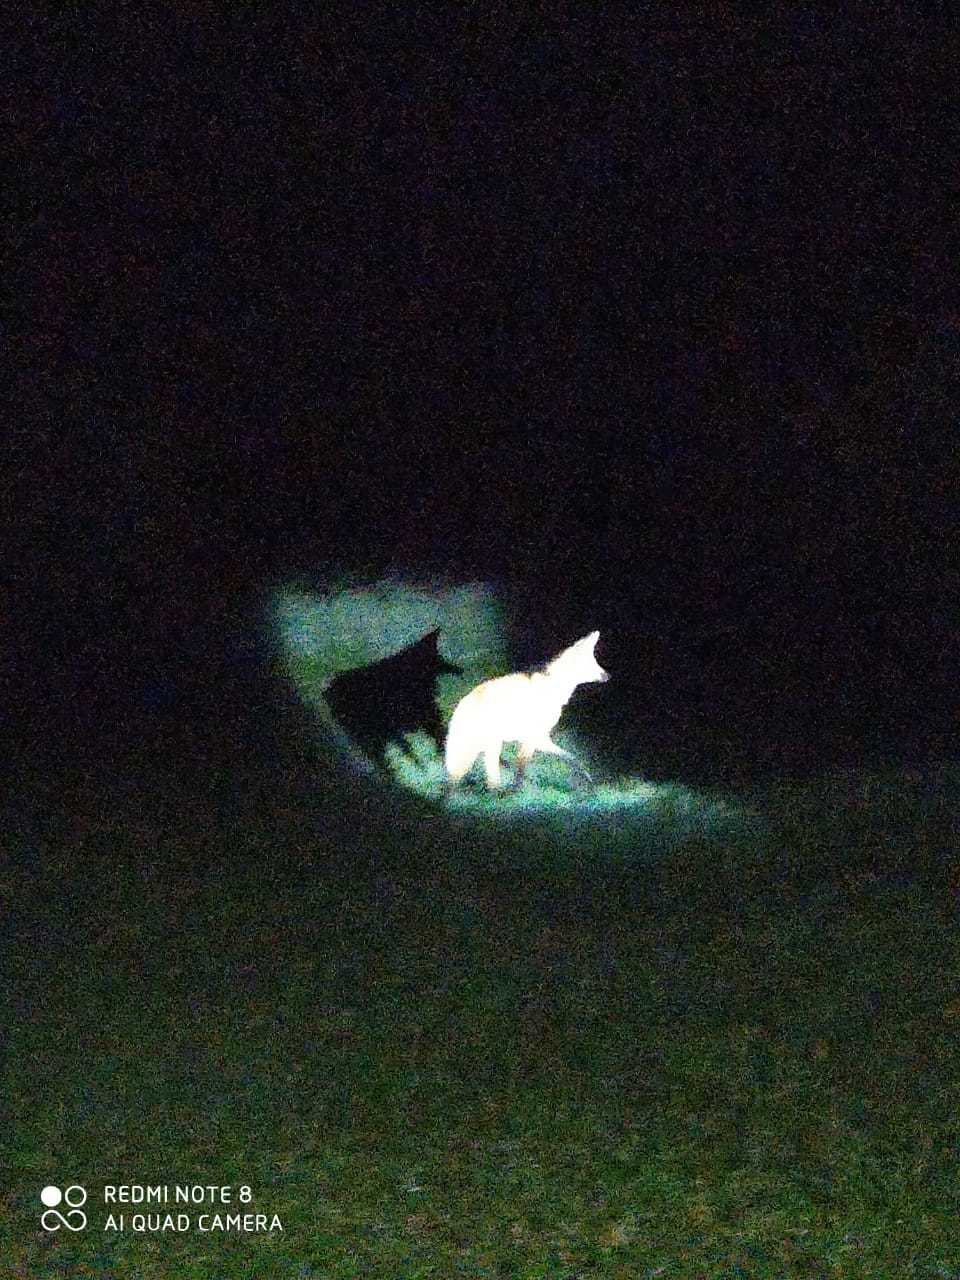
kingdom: Animalia
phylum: Chordata
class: Mammalia
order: Carnivora
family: Canidae
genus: Chrysocyon
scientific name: Chrysocyon brachyurus
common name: Maned wolf
